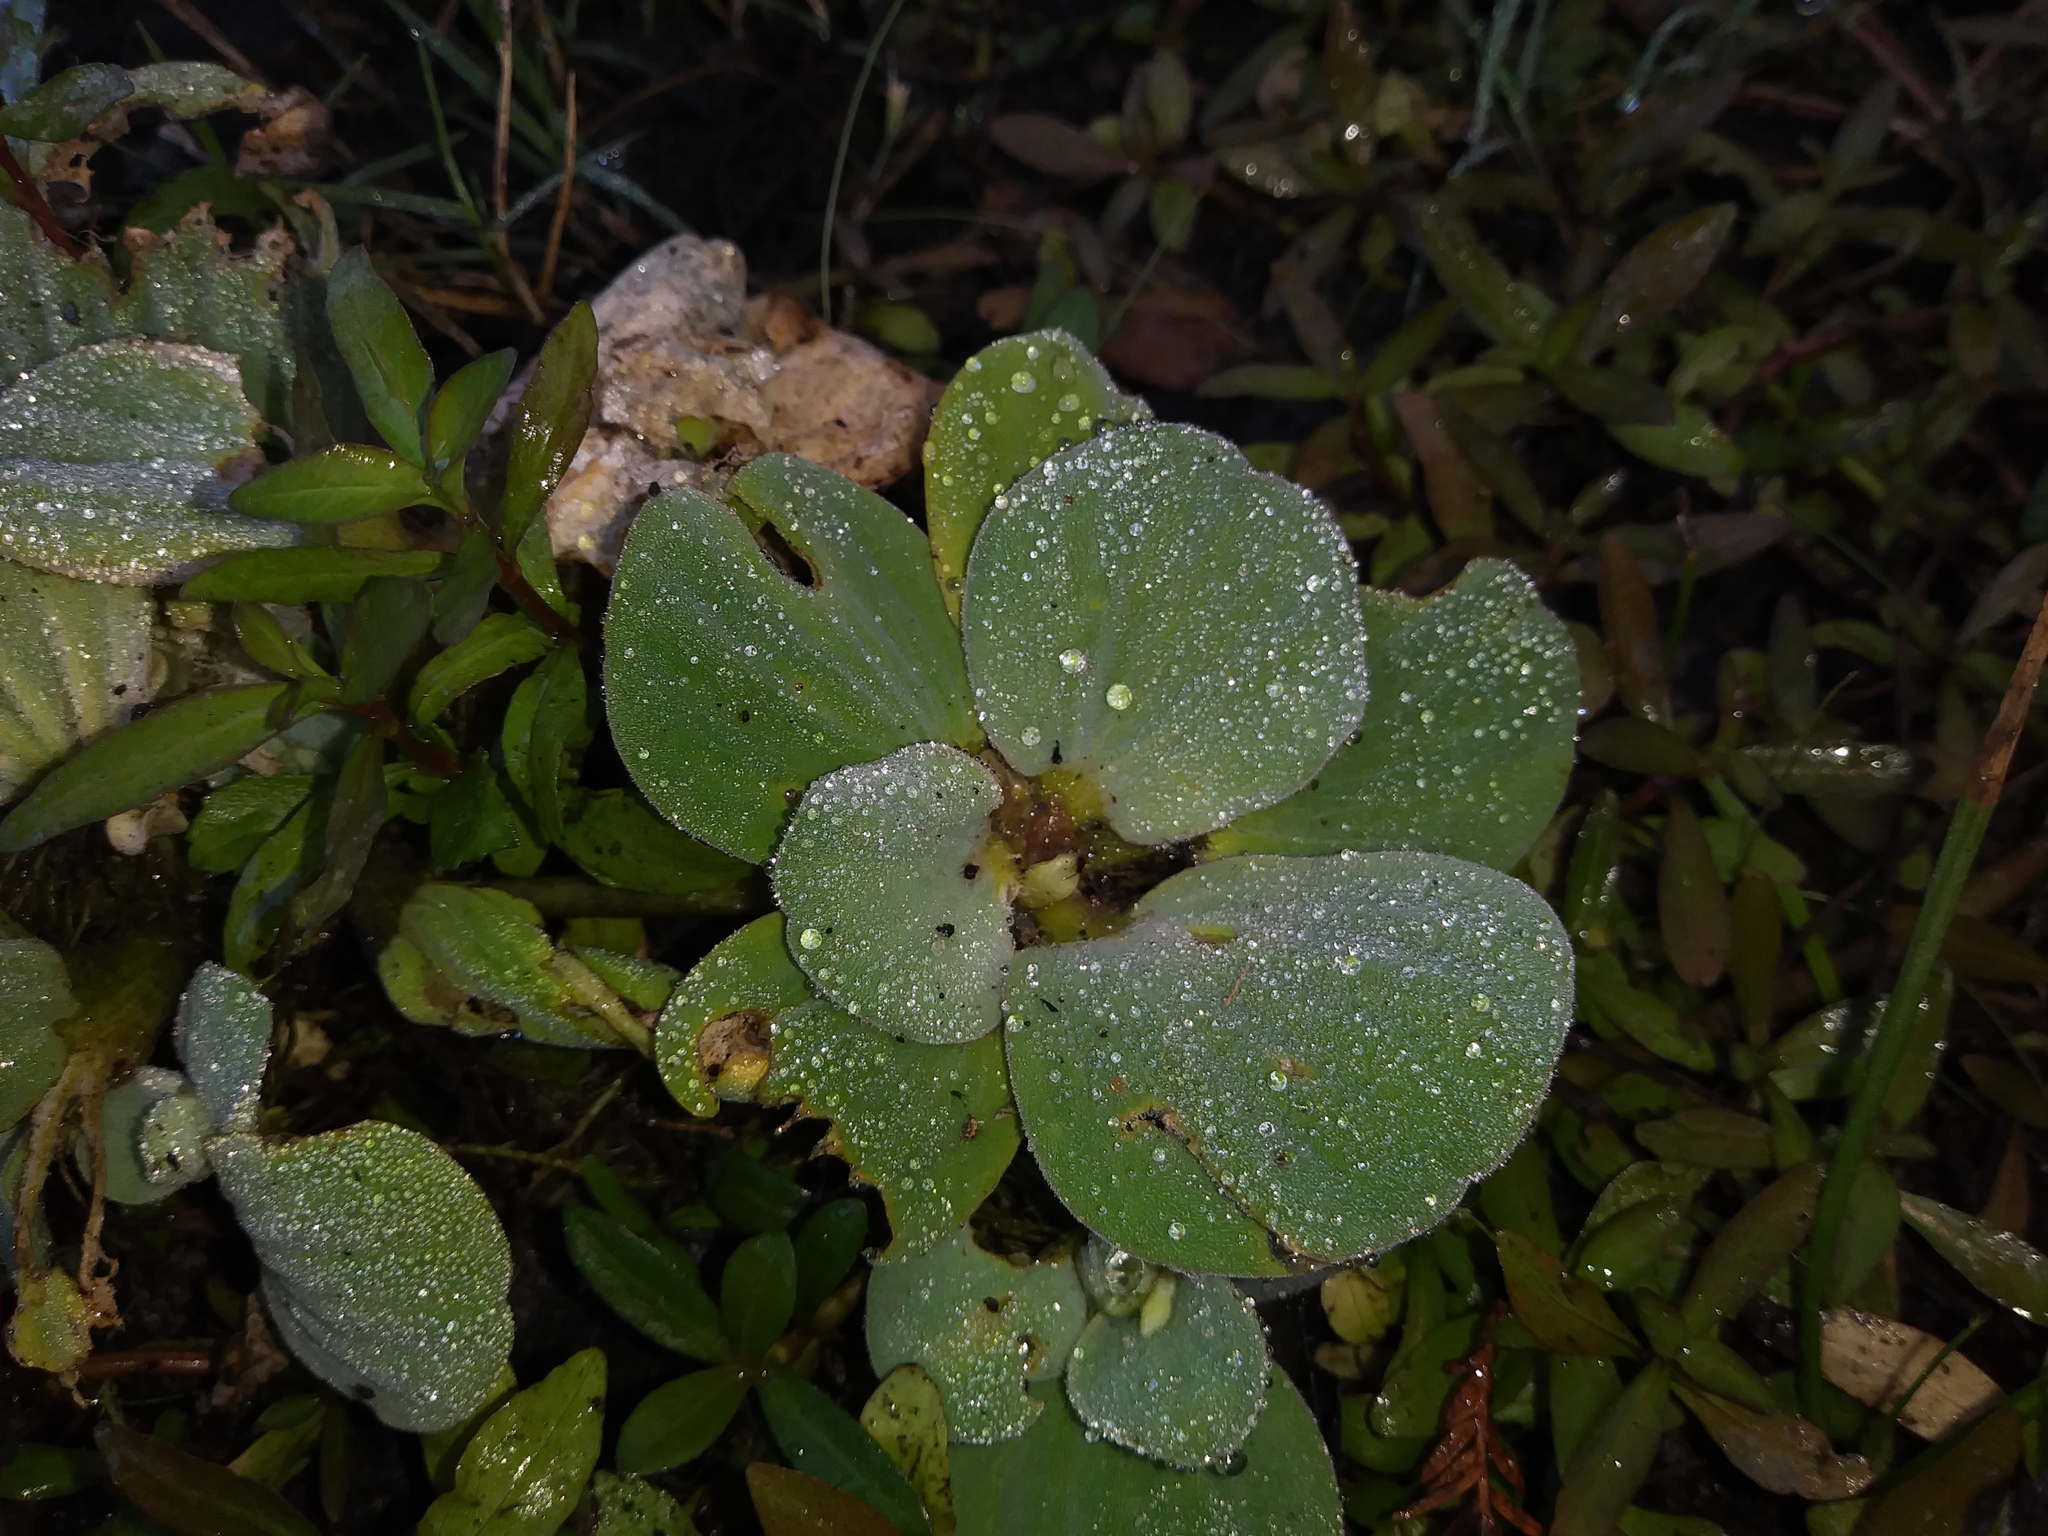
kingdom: Plantae
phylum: Tracheophyta
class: Liliopsida
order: Alismatales
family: Araceae
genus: Pistia
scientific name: Pistia stratiotes
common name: Water lettuce
